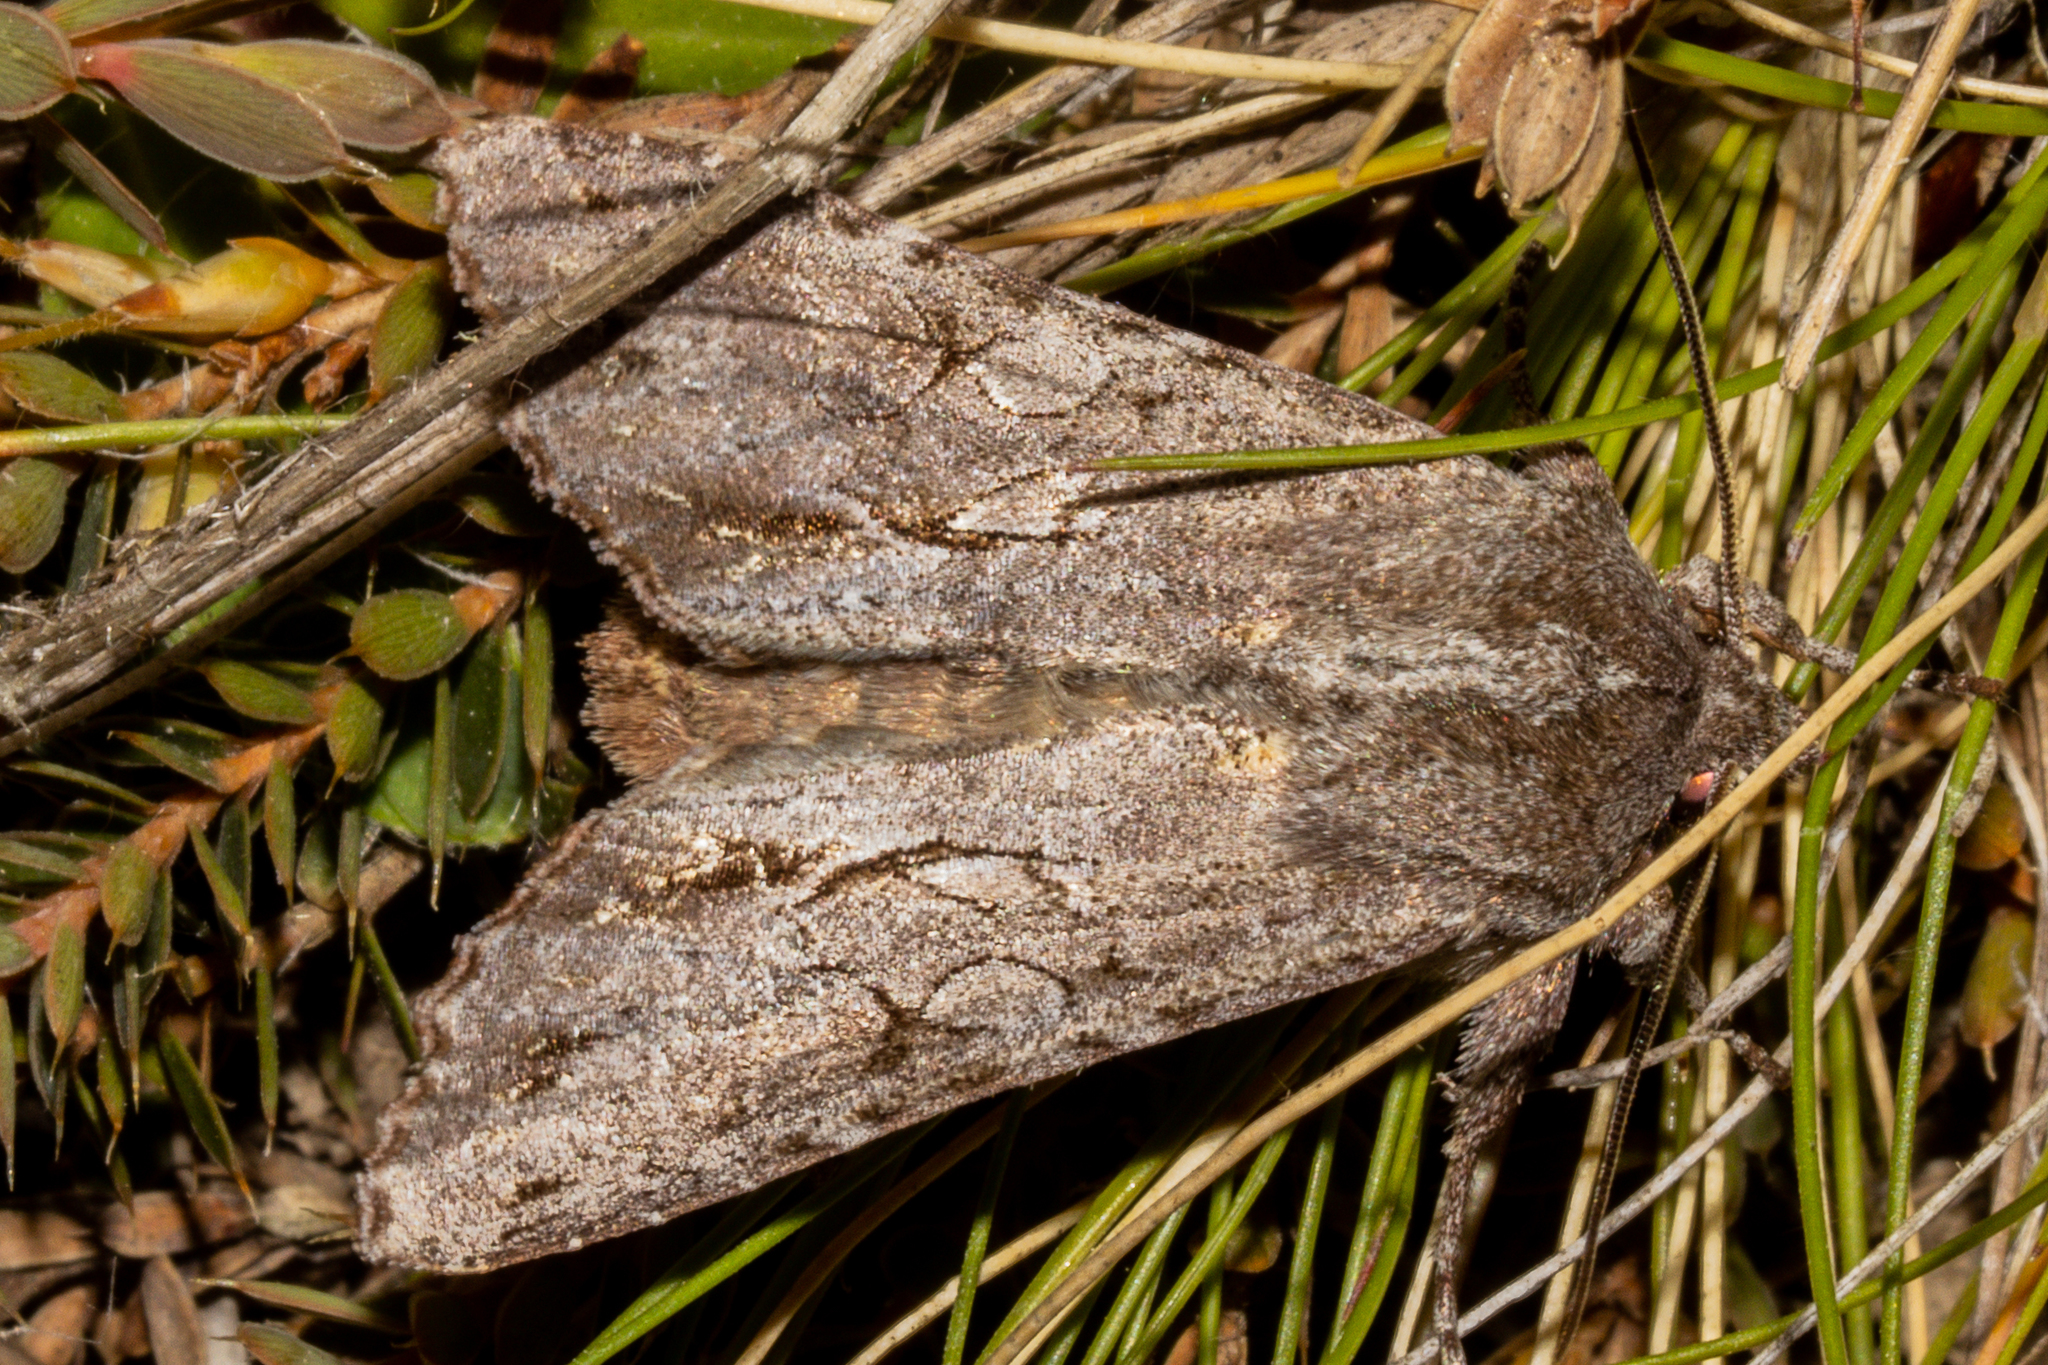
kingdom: Animalia
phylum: Arthropoda
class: Insecta
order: Lepidoptera
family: Noctuidae
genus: Ichneutica
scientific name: Ichneutica
